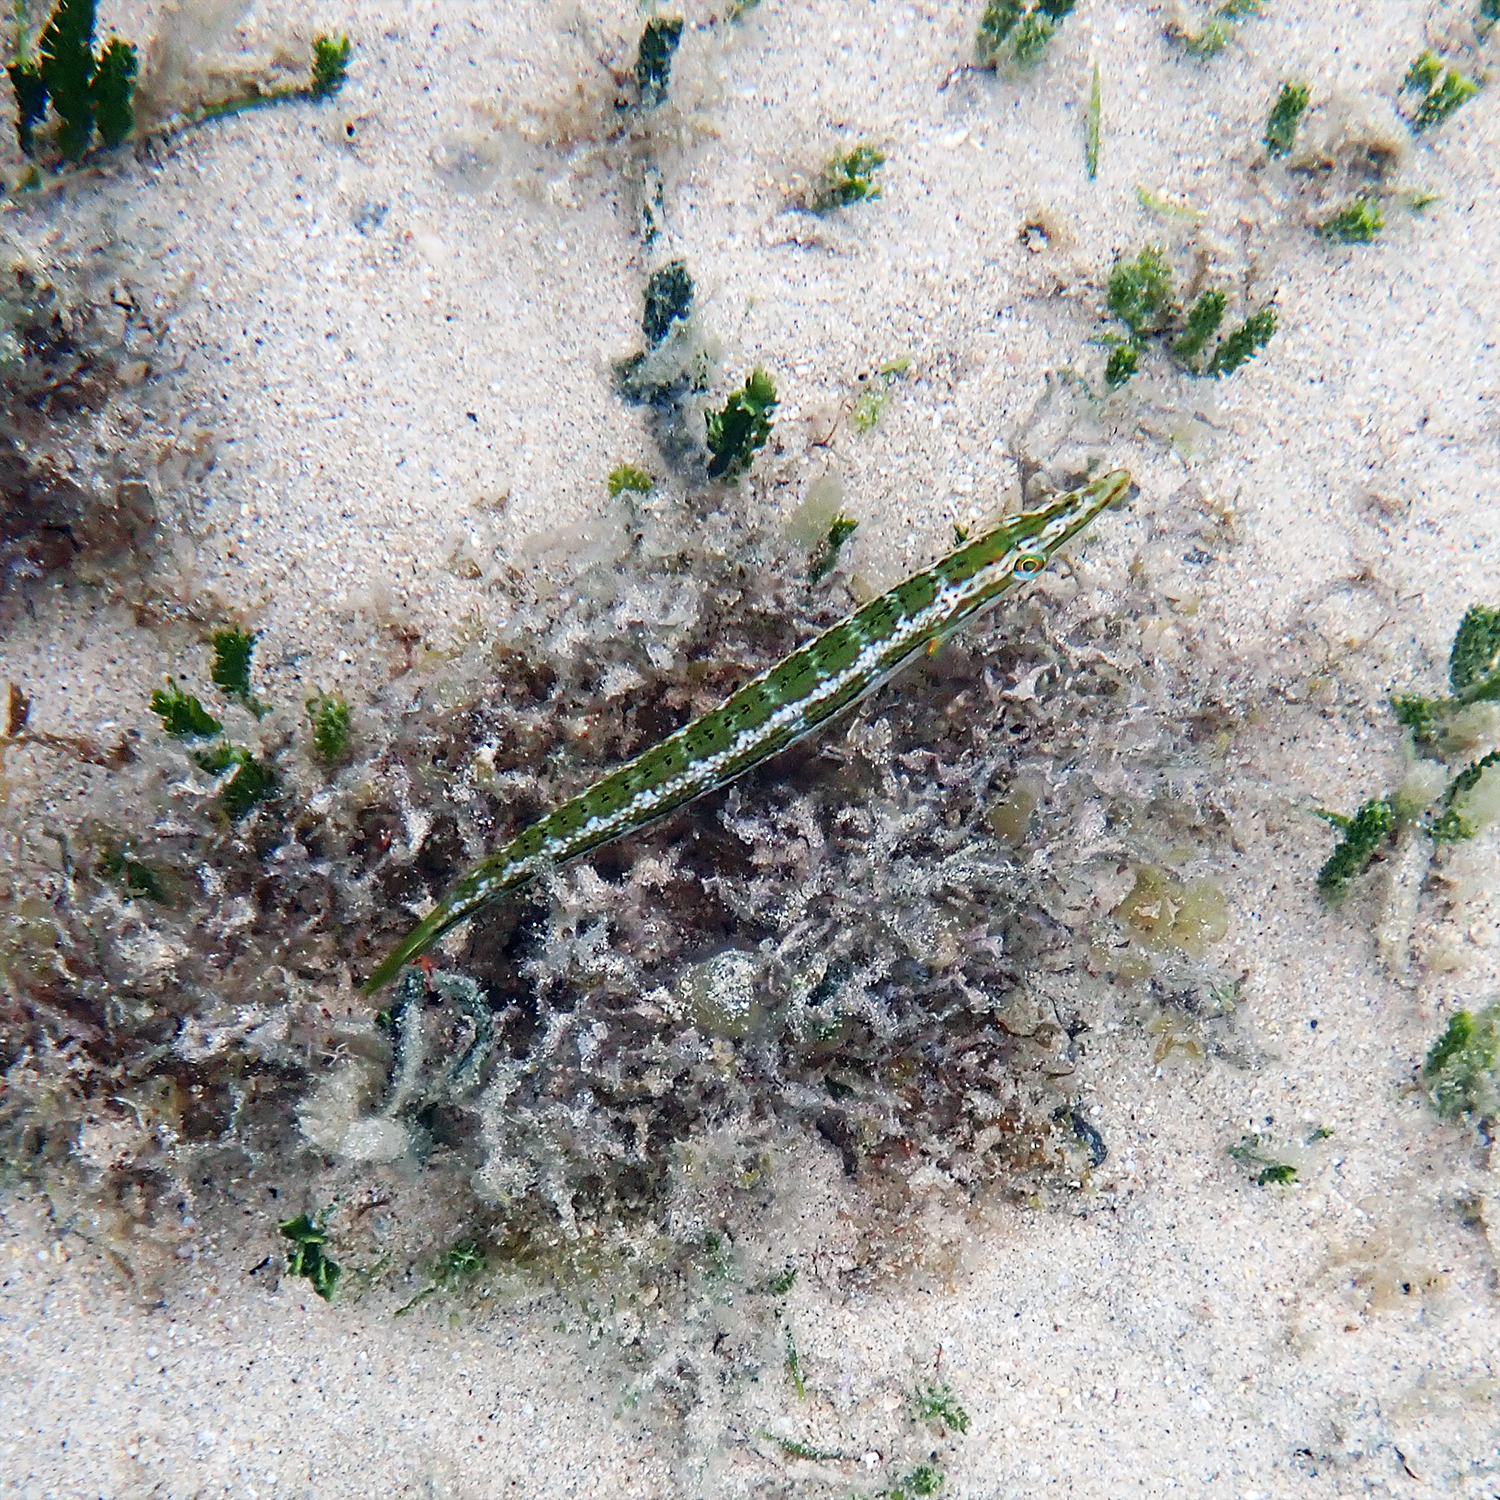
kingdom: Animalia
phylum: Chordata
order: Perciformes
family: Labridae
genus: Cheilio
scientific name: Cheilio inermis
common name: Cigar wrasse
